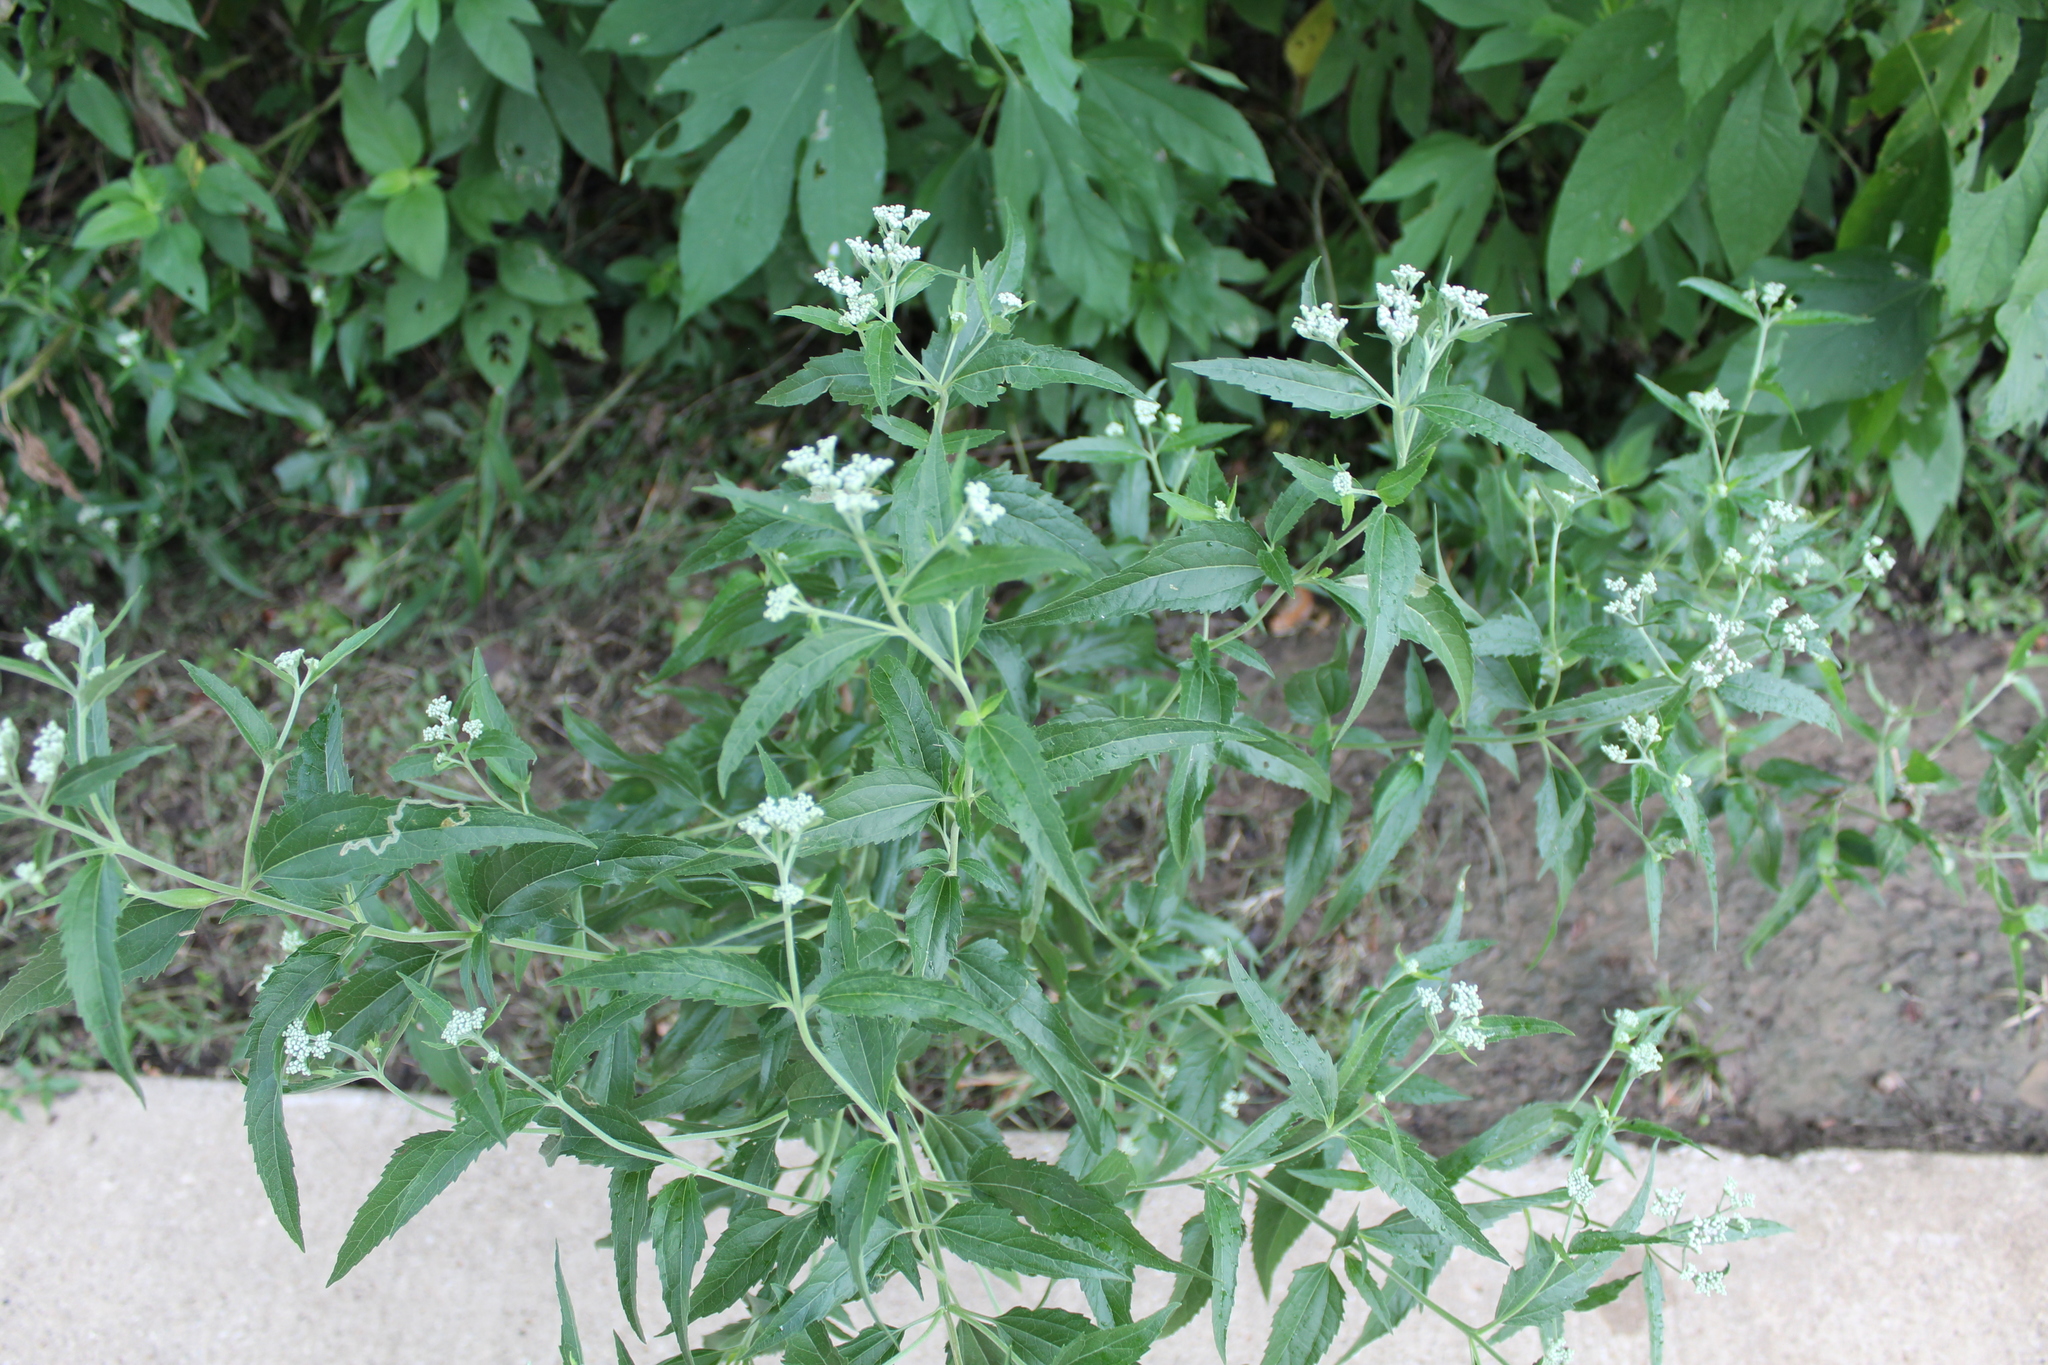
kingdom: Plantae
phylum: Tracheophyta
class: Magnoliopsida
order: Asterales
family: Asteraceae
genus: Eupatorium
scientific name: Eupatorium serotinum
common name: Late boneset
